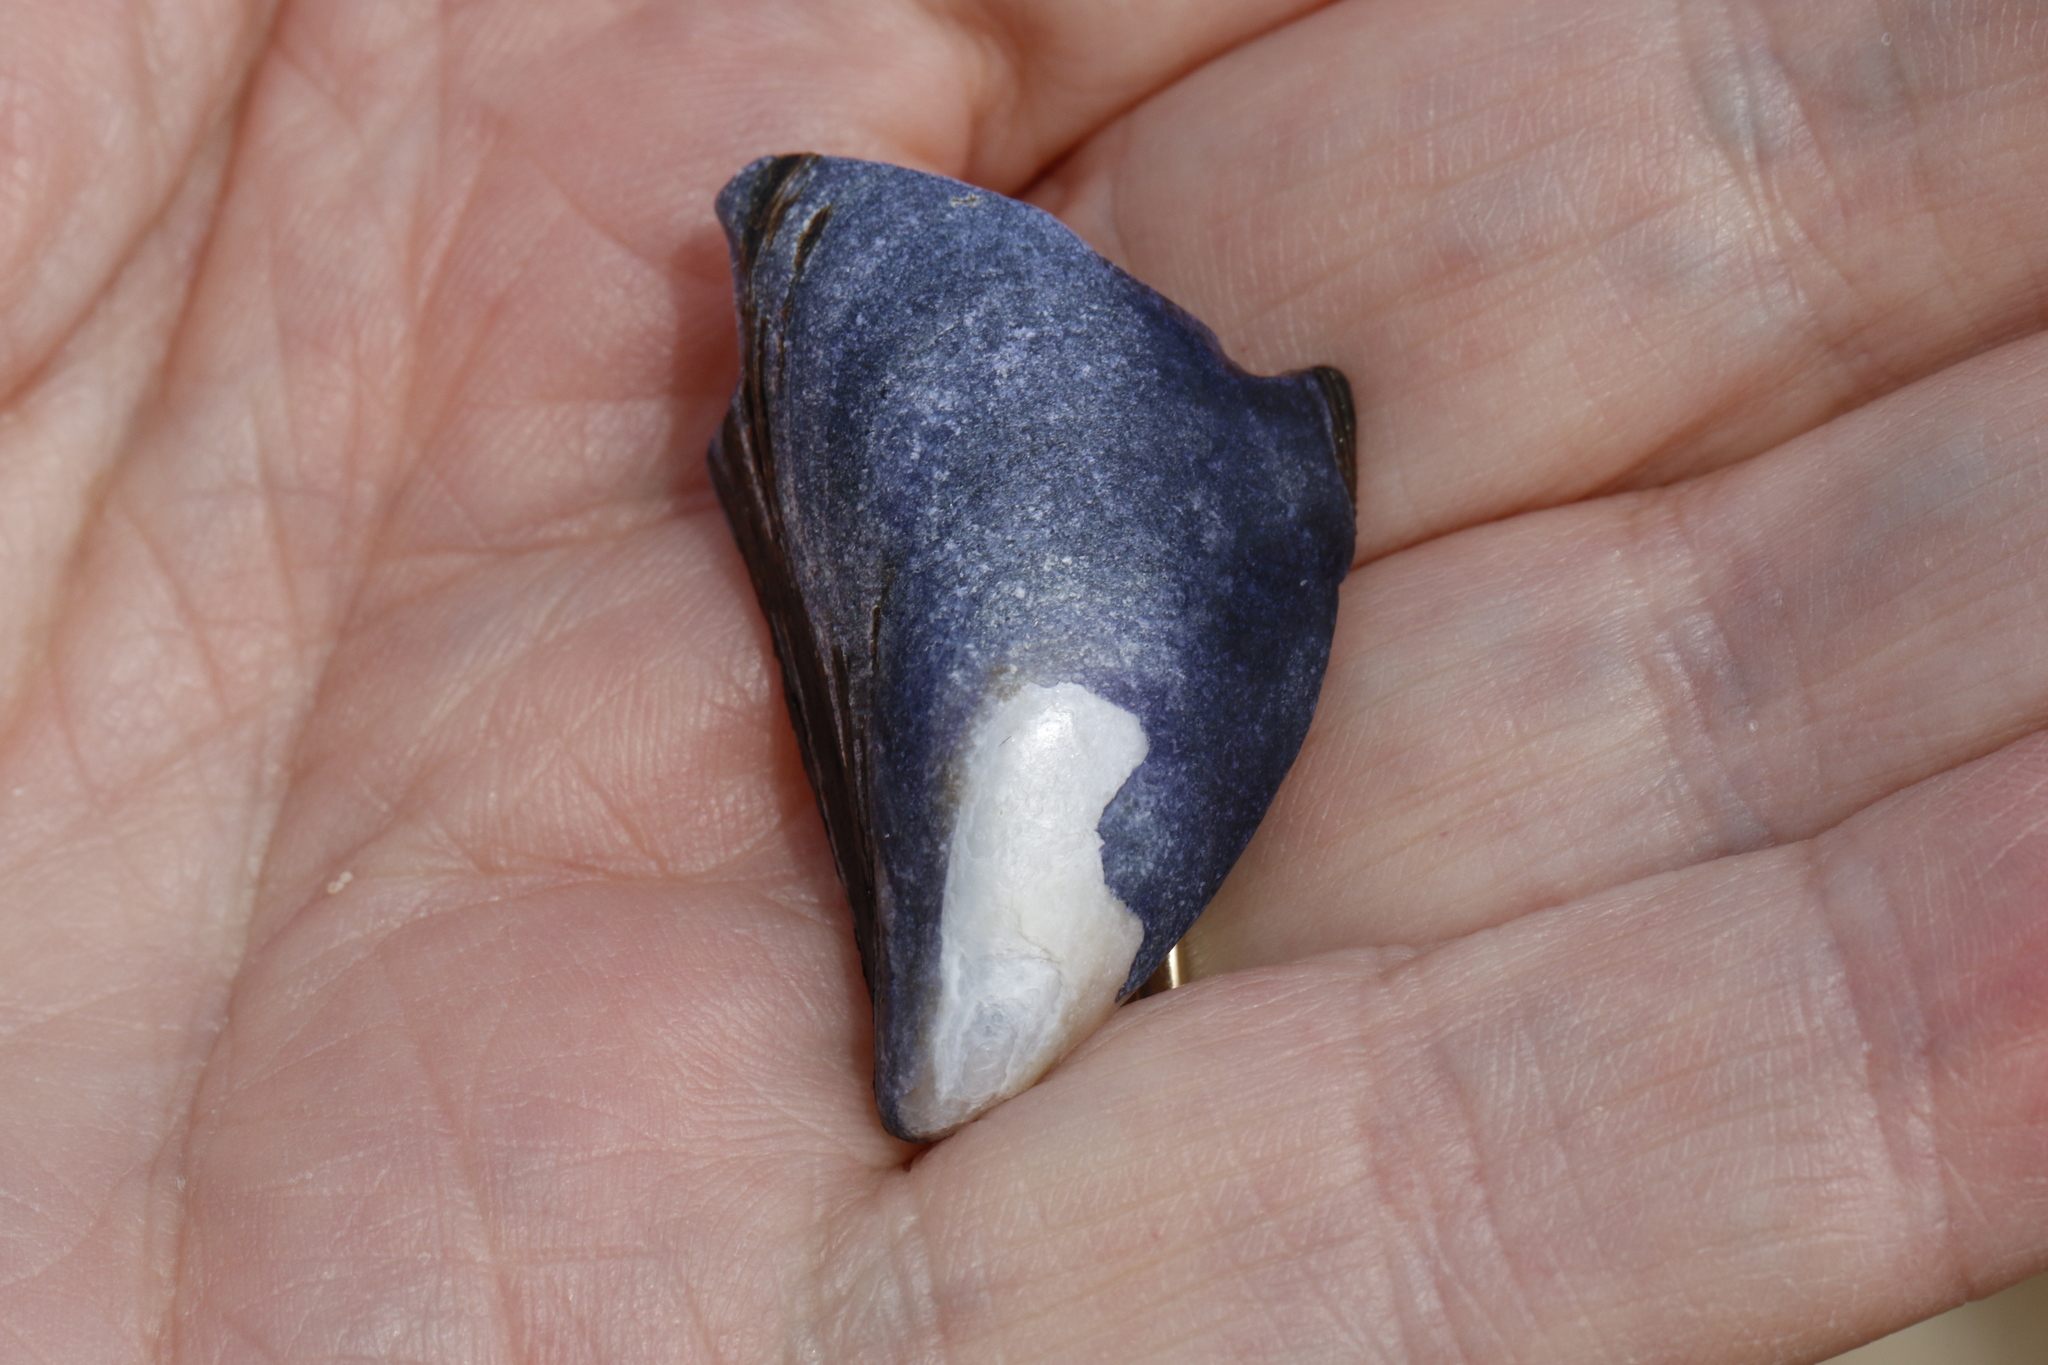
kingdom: Animalia
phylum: Mollusca
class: Bivalvia
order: Mytilida
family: Mytilidae
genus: Mytilus
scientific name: Mytilus edulis
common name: Blue mussel
